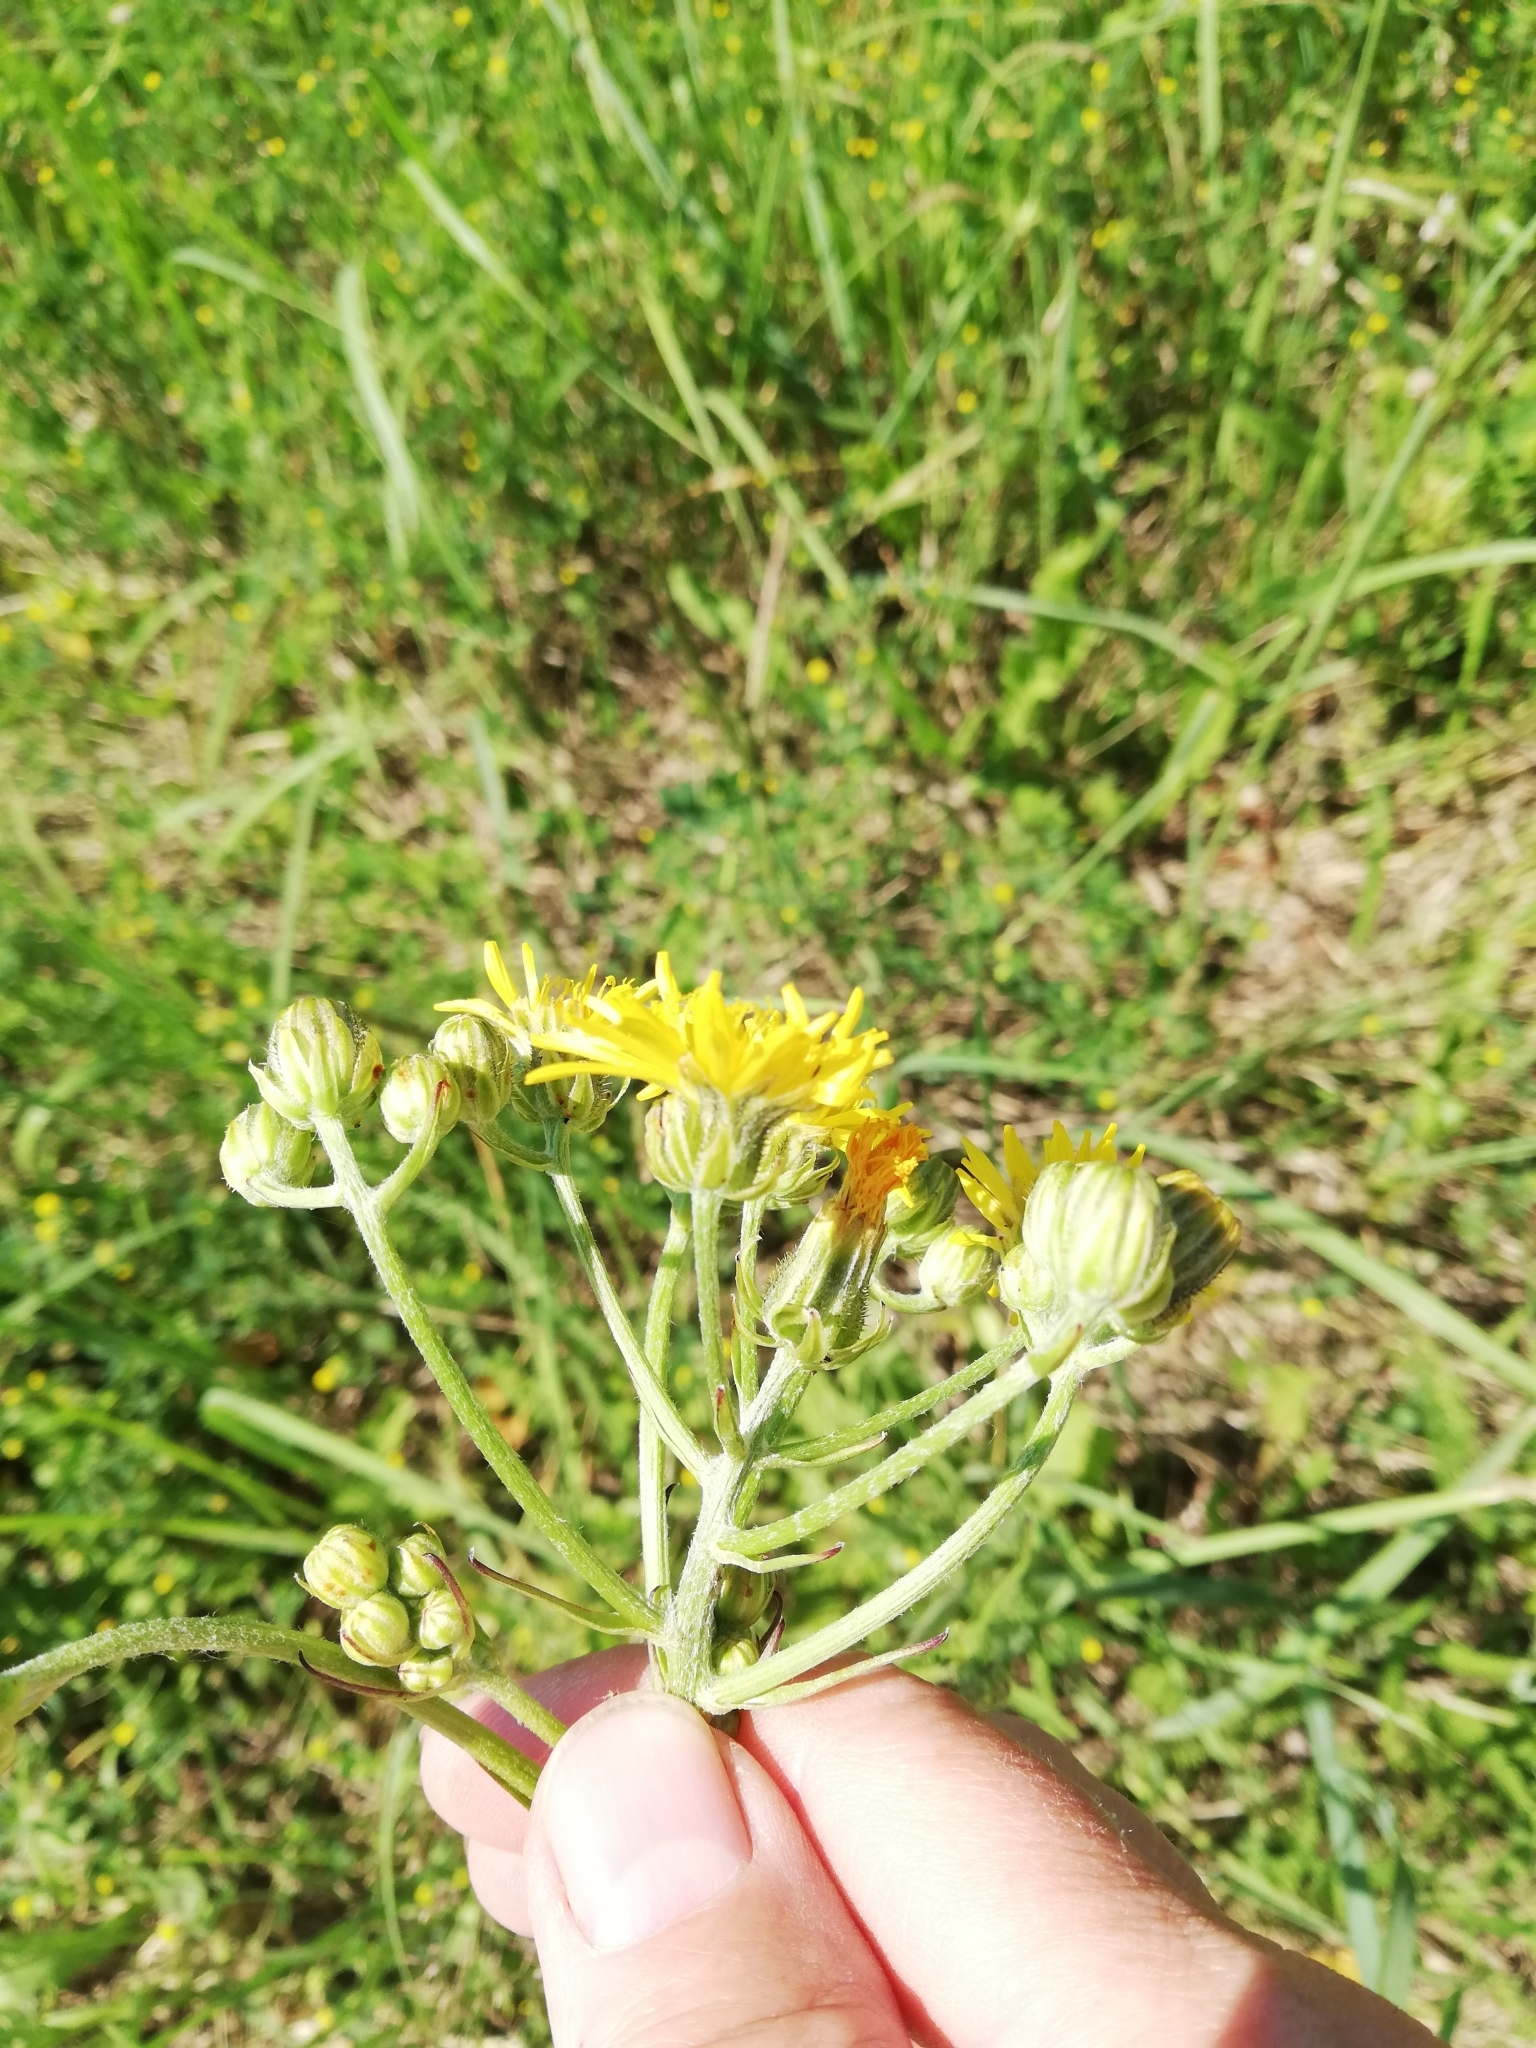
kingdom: Plantae
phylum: Tracheophyta
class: Magnoliopsida
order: Asterales
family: Asteraceae
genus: Crepis
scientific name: Crepis biennis
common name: Rough hawk's-beard
